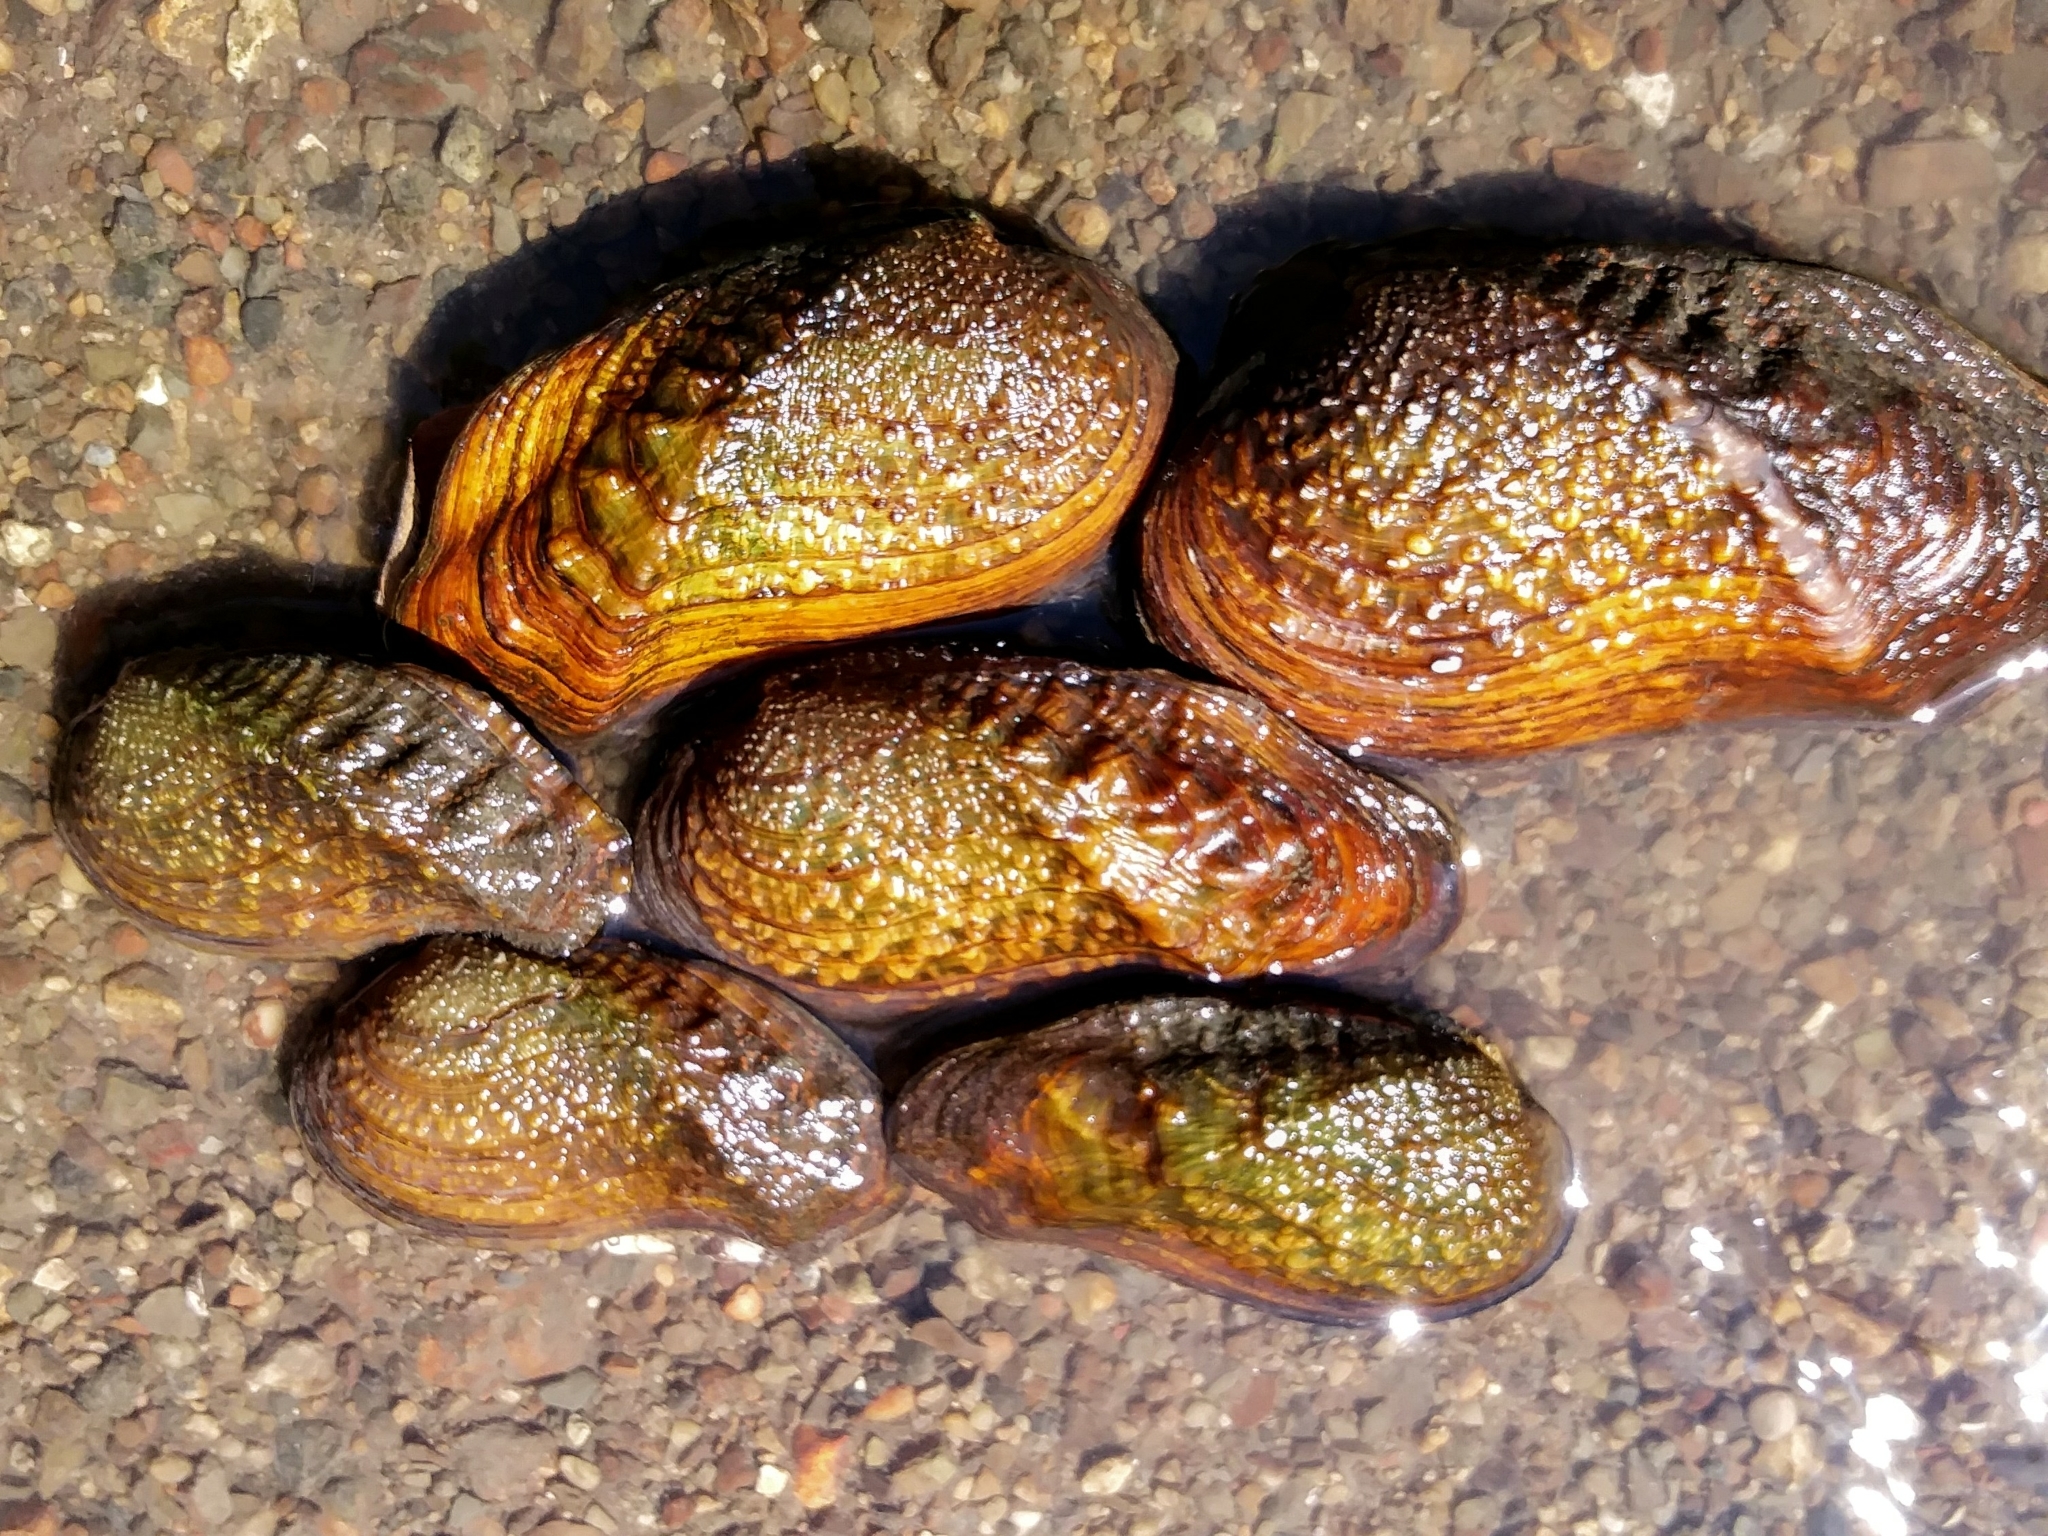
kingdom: Animalia
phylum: Mollusca
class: Bivalvia
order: Unionida
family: Unionidae
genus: Tritogonia
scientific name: Tritogonia verrucosa
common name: Pistolgrip
